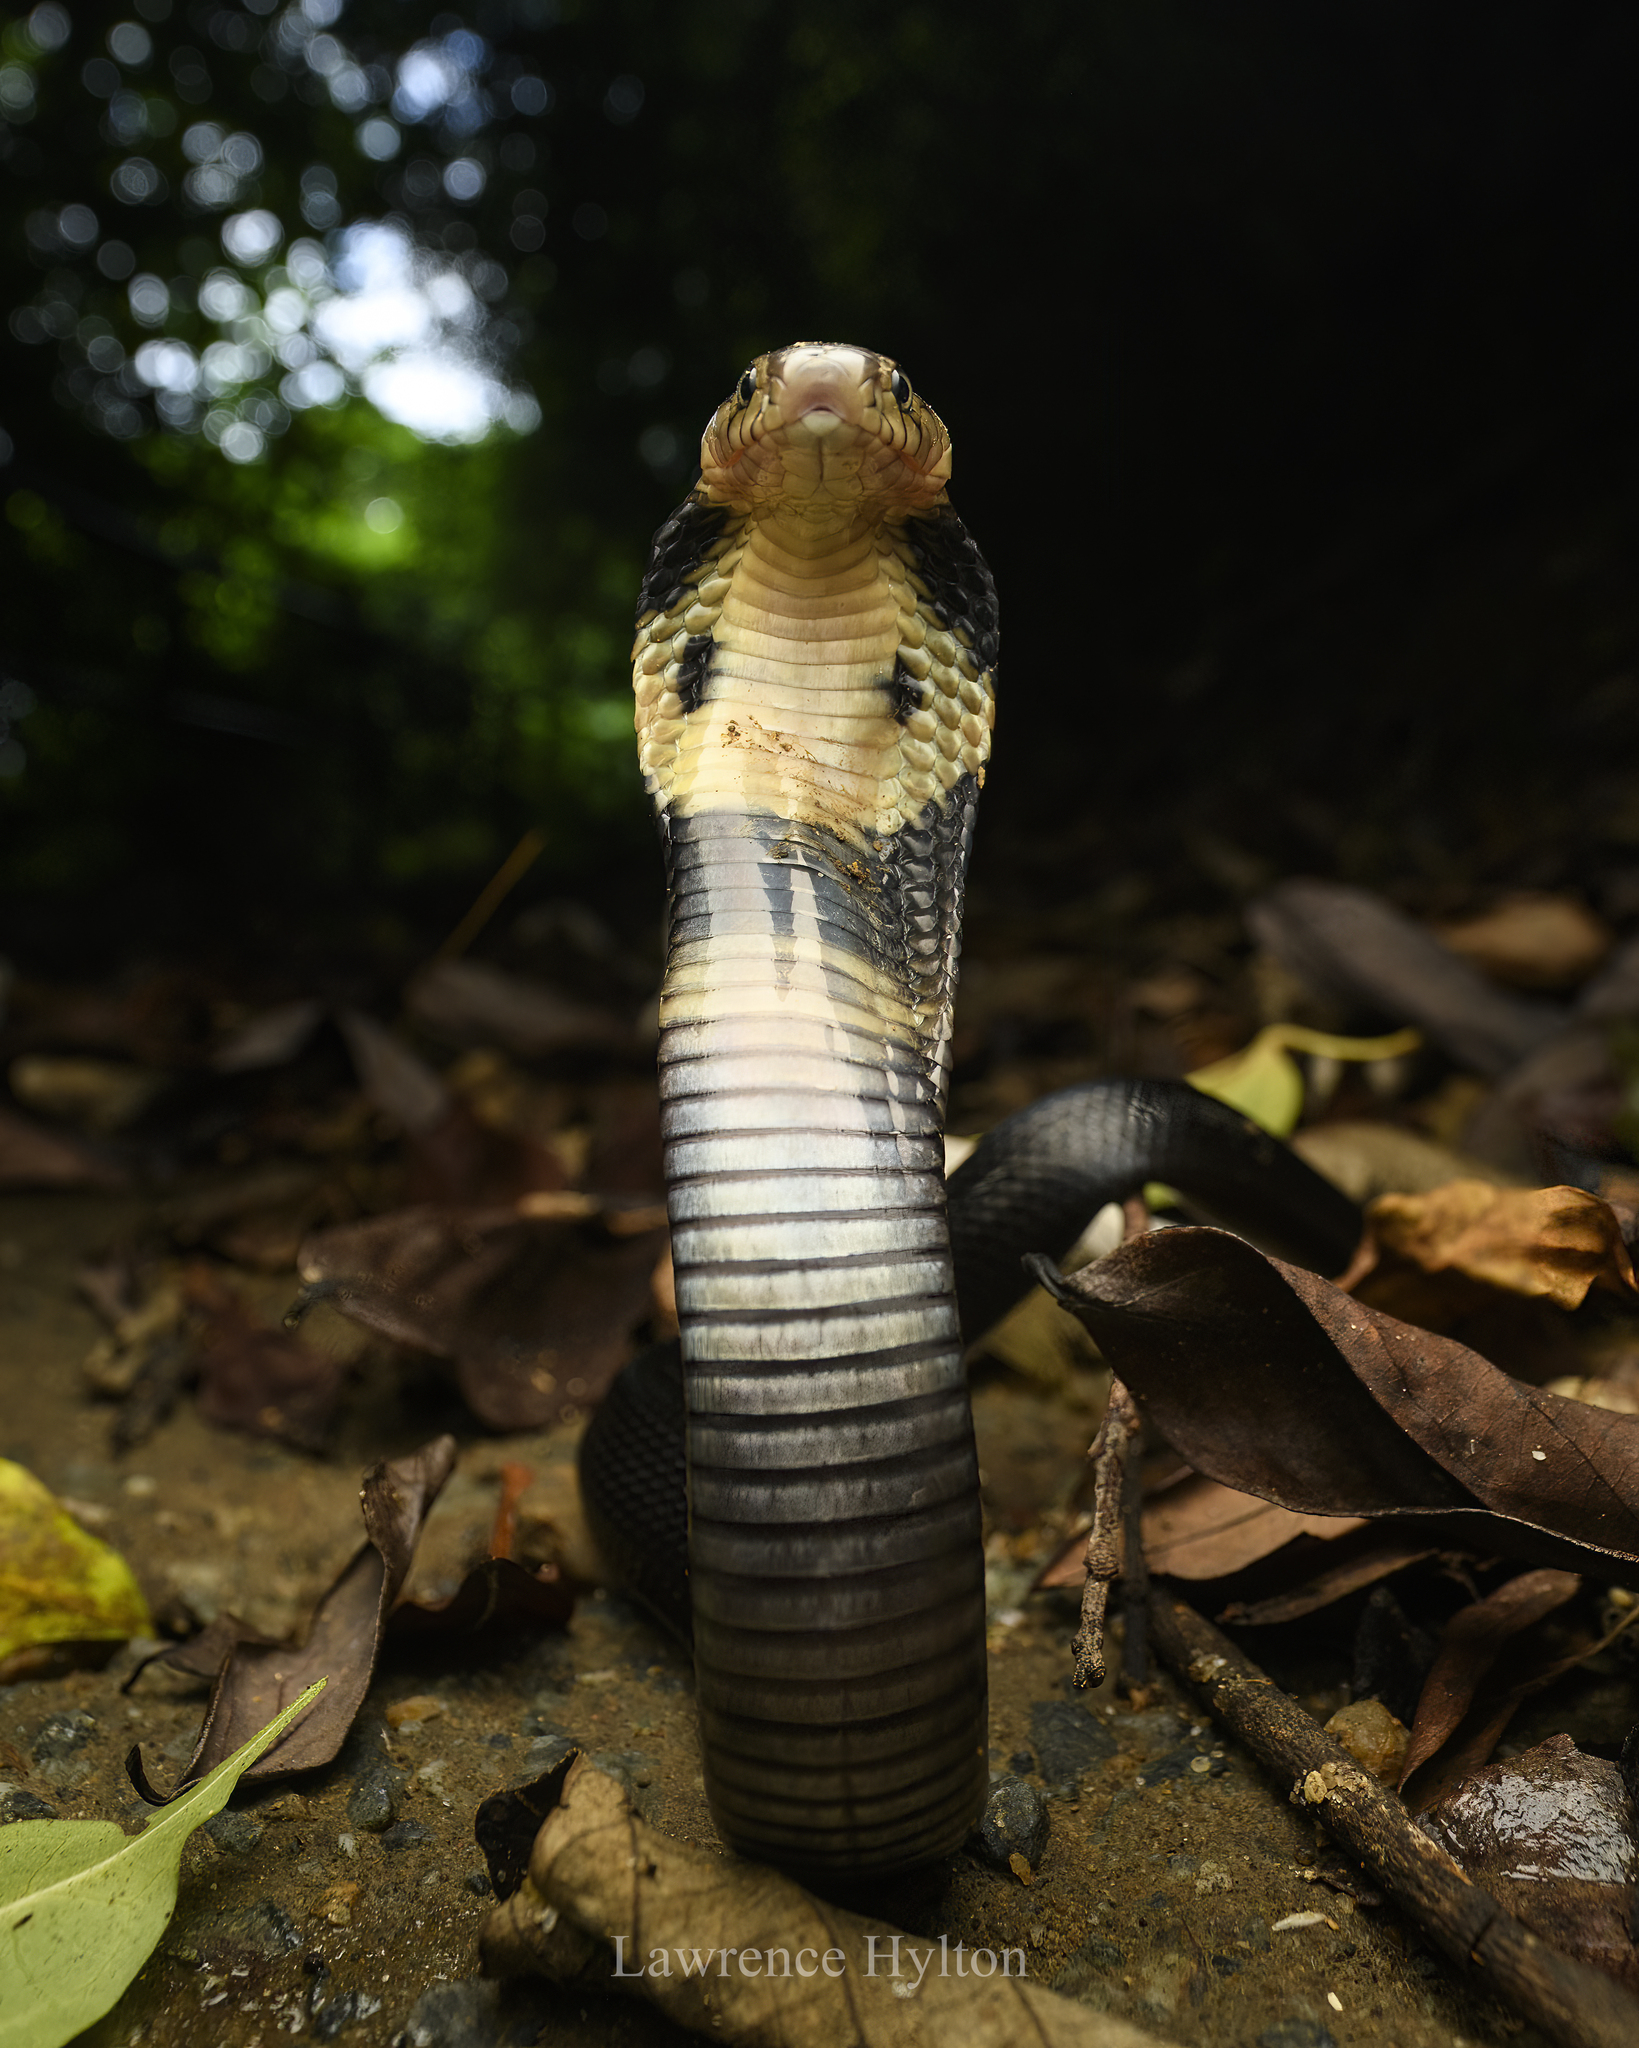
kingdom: Animalia
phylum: Chordata
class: Squamata
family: Elapidae
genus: Naja
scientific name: Naja atra
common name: Chinese cobra
